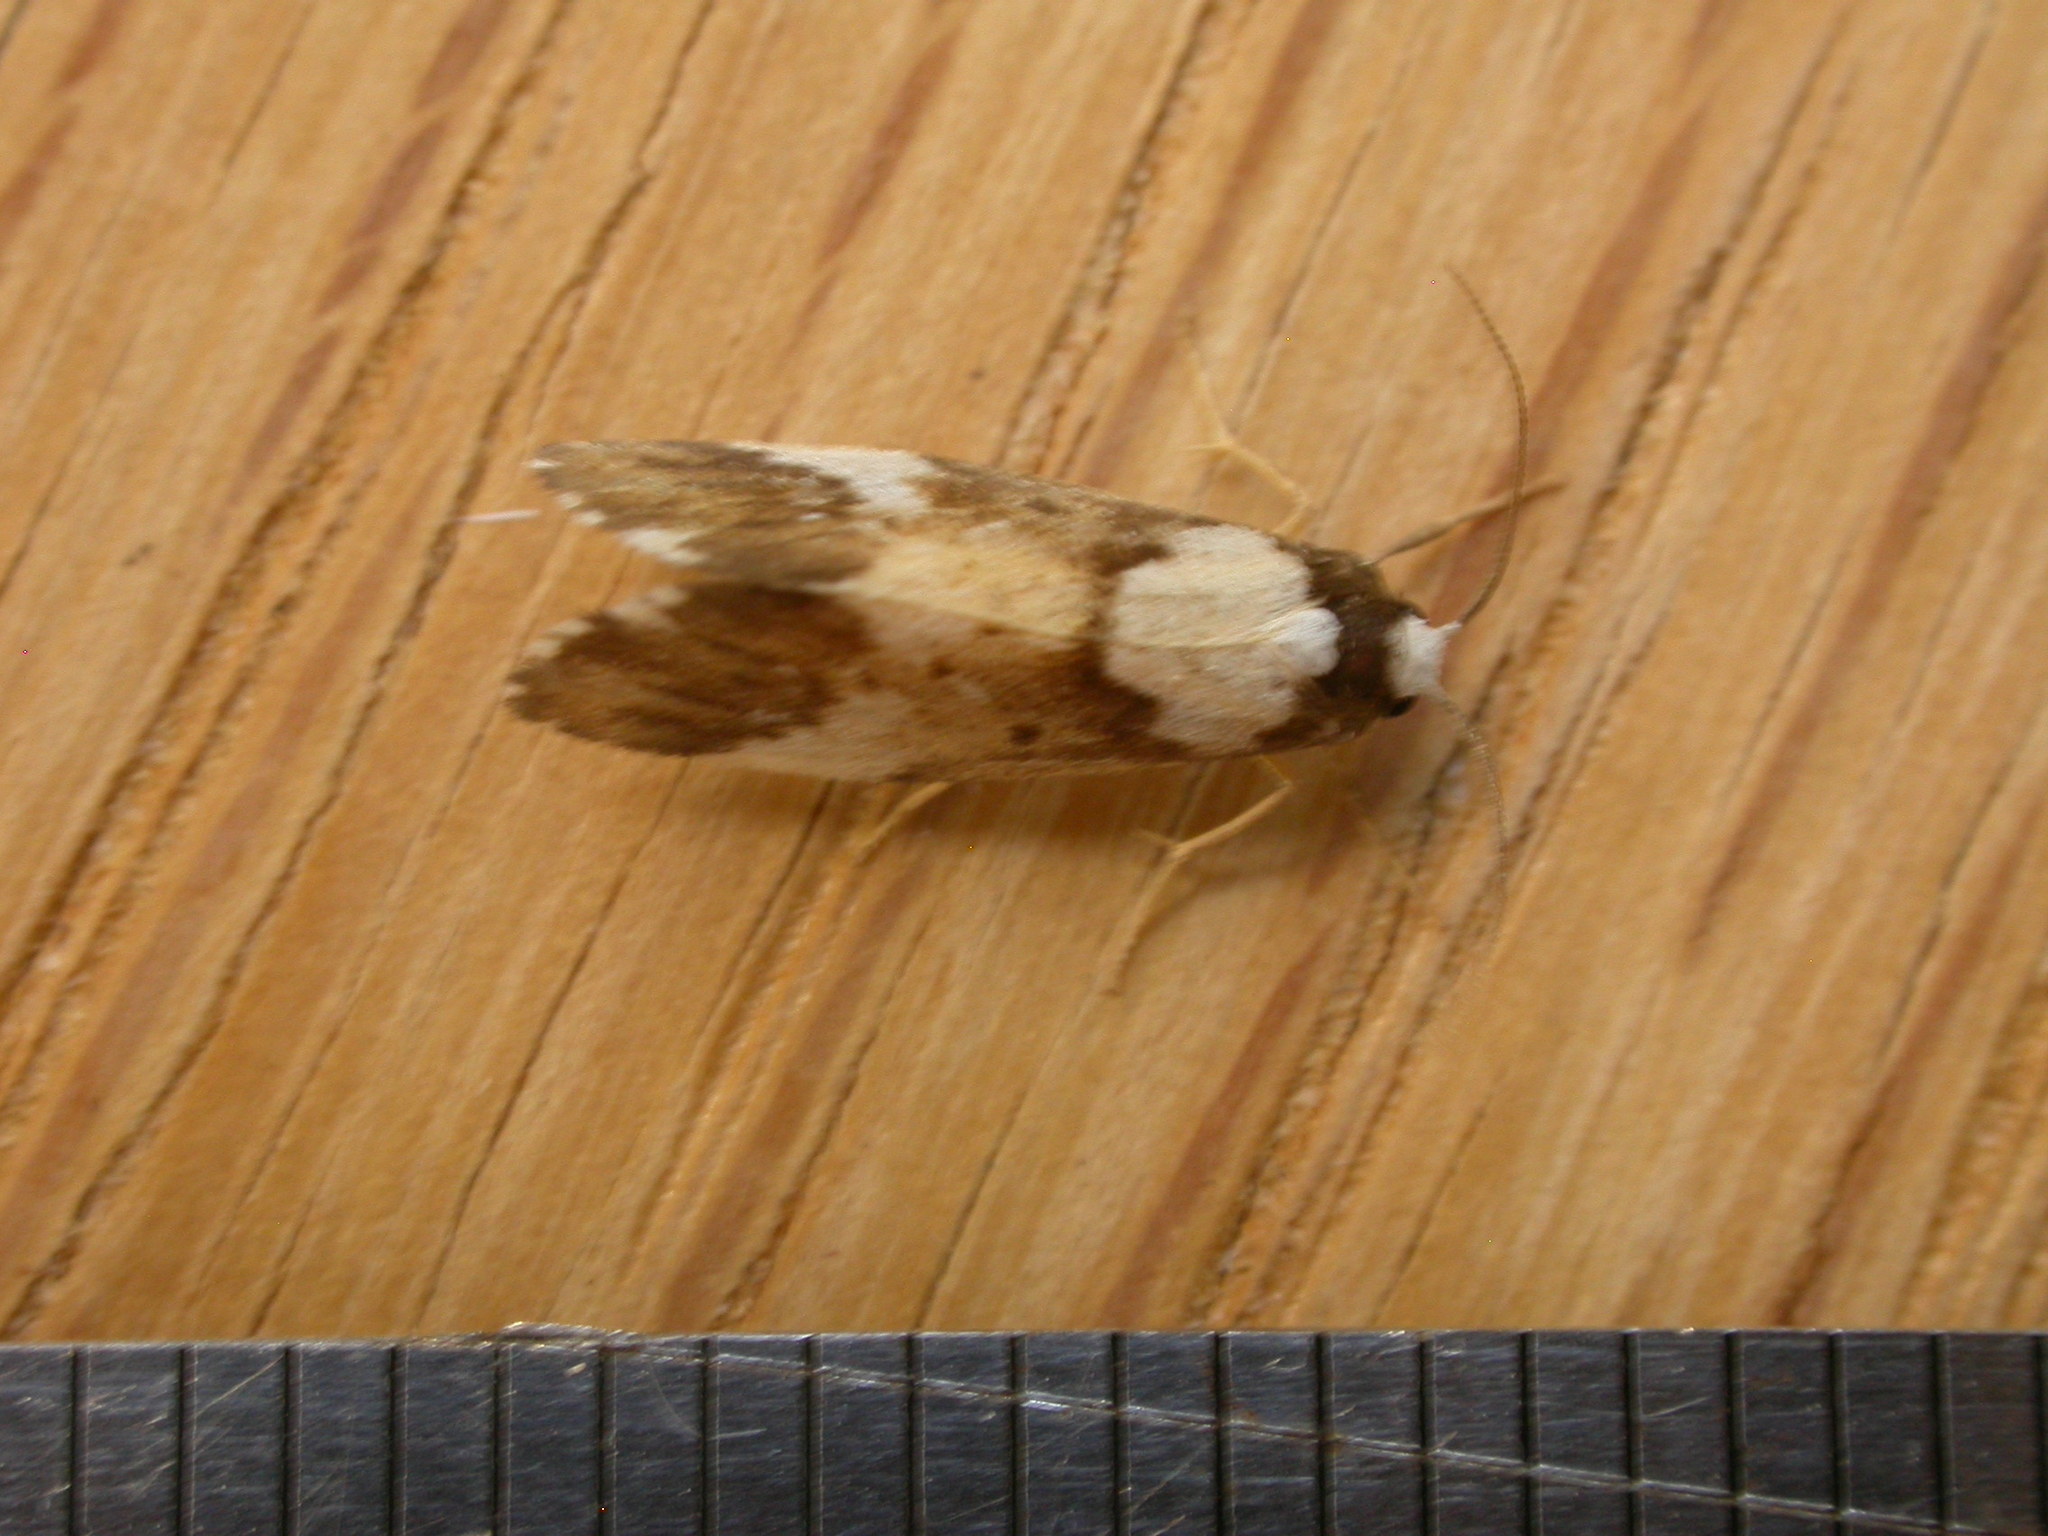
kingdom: Animalia
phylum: Arthropoda
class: Insecta
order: Lepidoptera
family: Erebidae
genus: Philenora
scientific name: Philenora elegans
